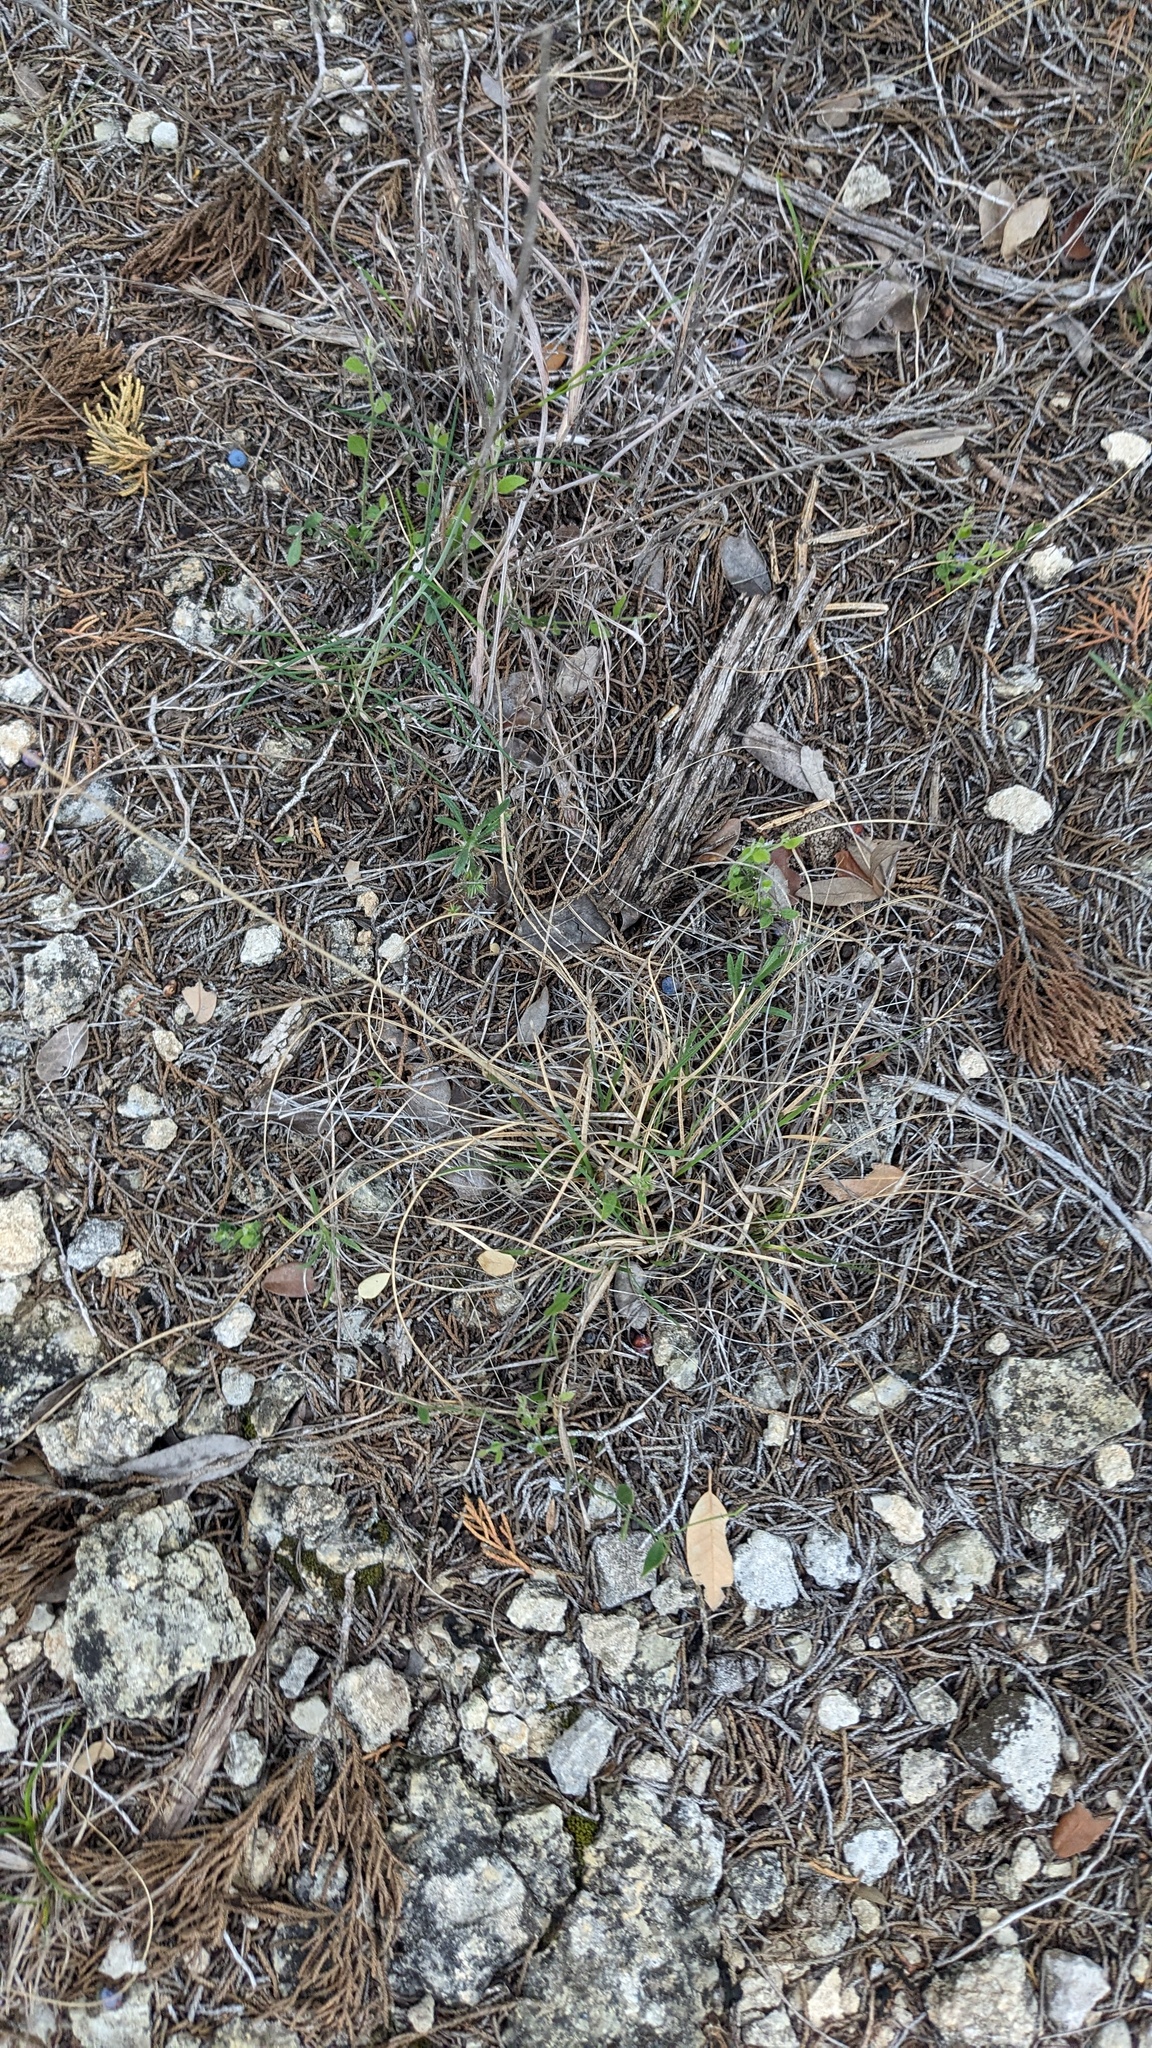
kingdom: Plantae
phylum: Tracheophyta
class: Liliopsida
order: Poales
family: Poaceae
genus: Bouteloua
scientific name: Bouteloua hirsuta
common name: Hairy grama
